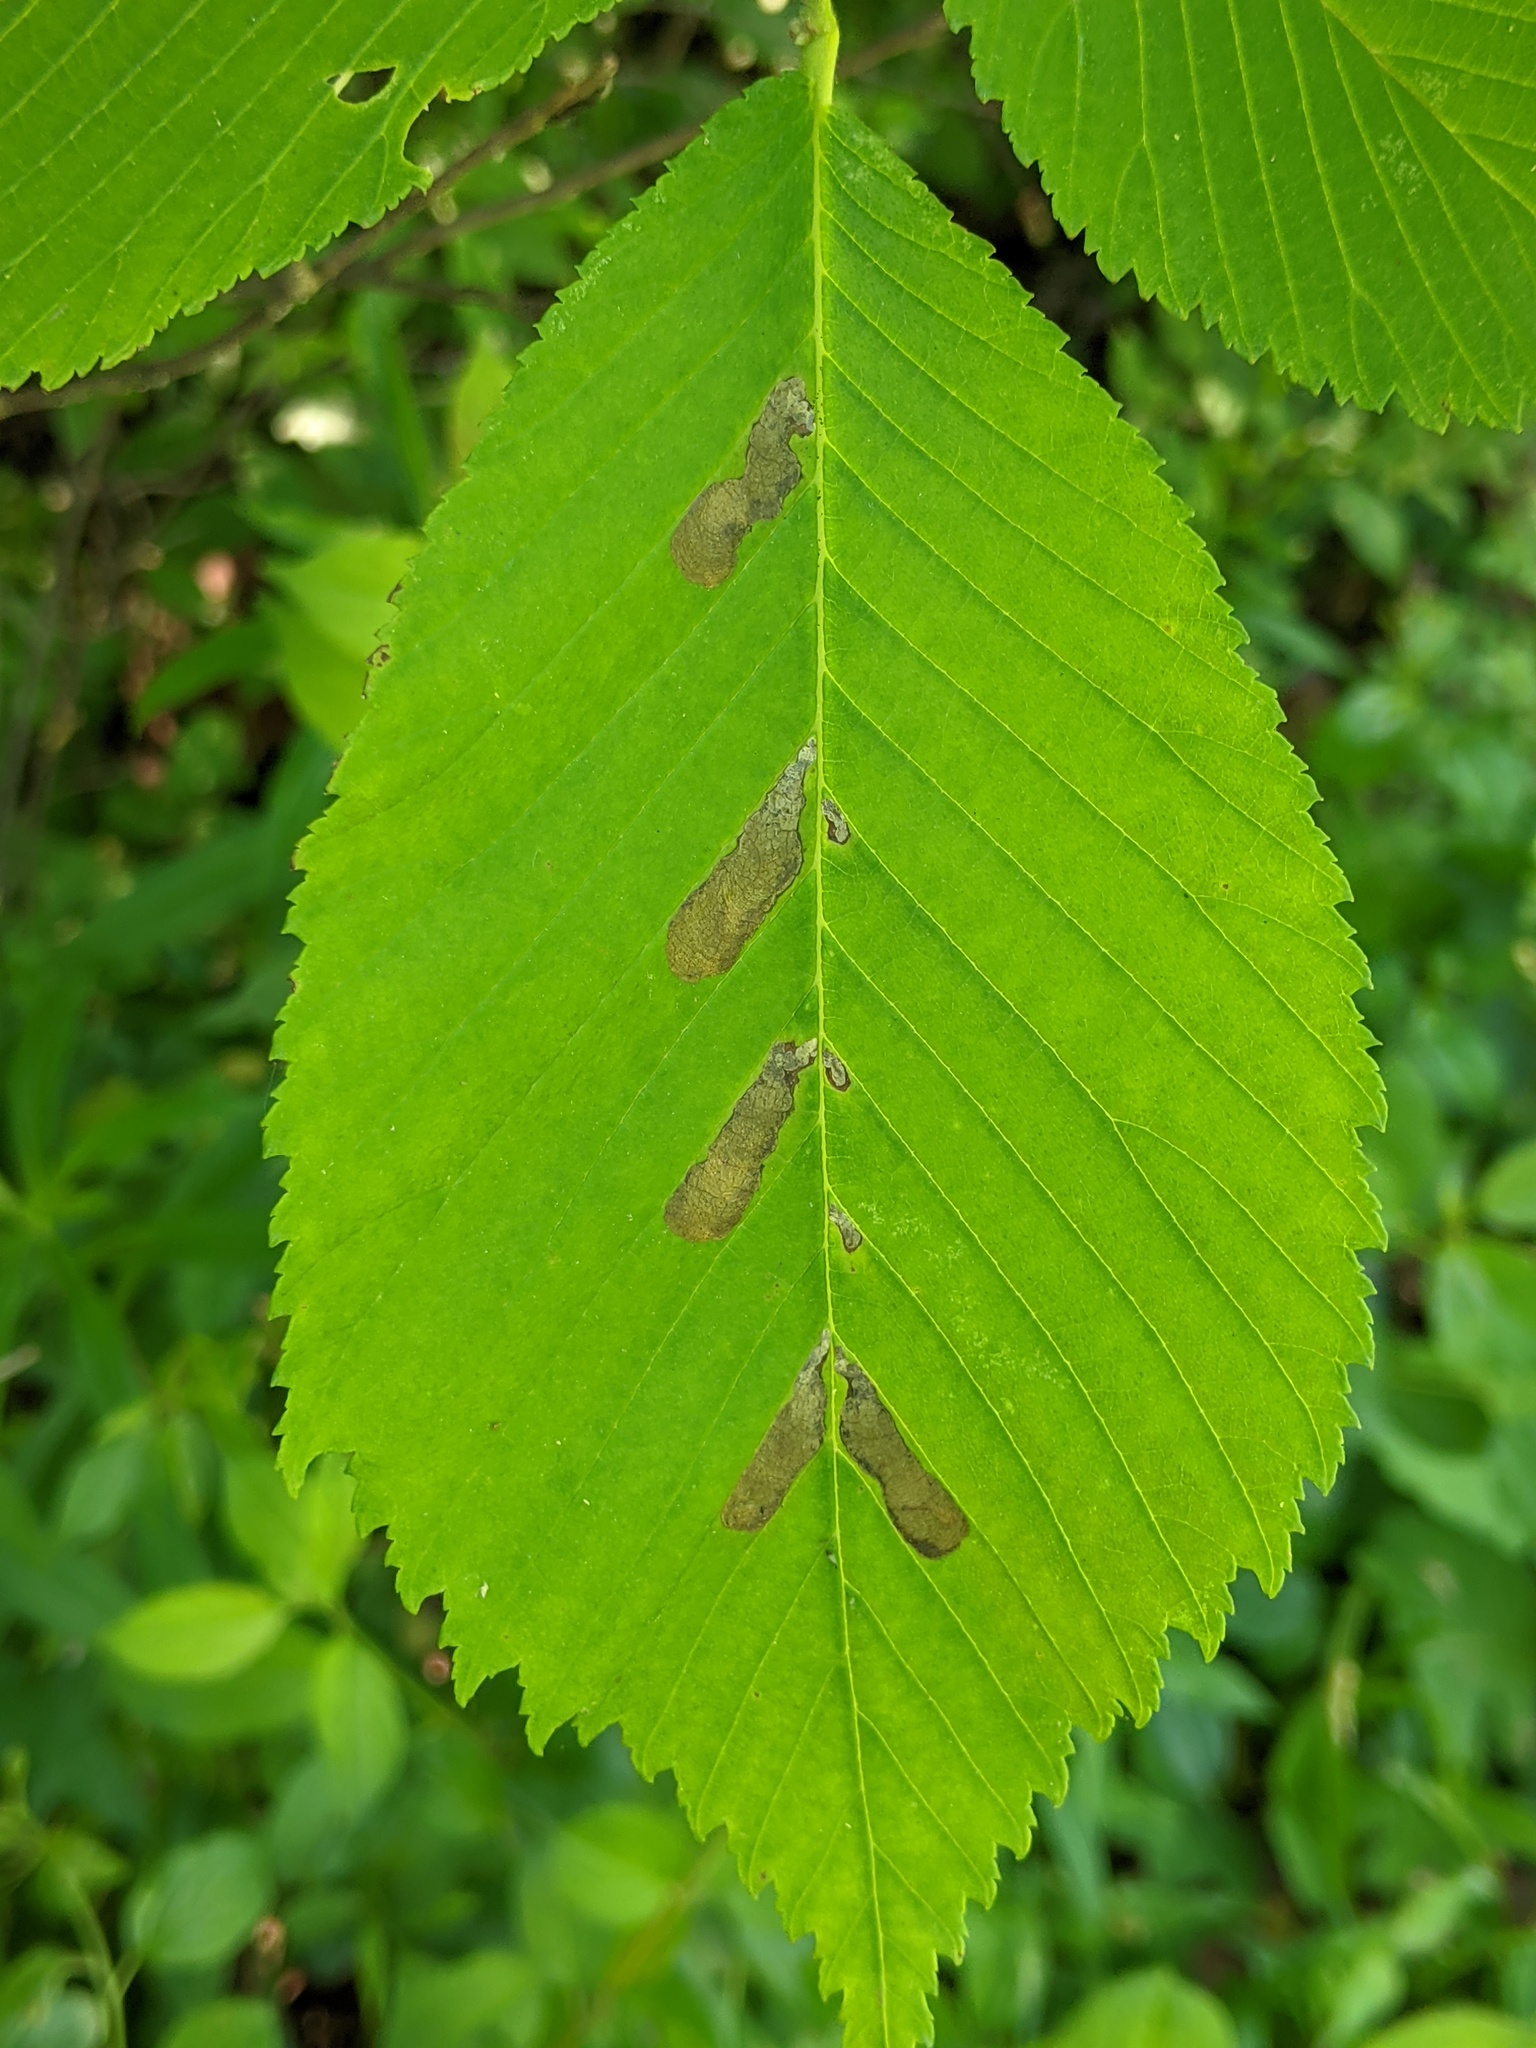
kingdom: Animalia
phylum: Arthropoda
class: Insecta
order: Hymenoptera
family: Tenthredinidae
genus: Fenusa
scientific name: Fenusa ulmi
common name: Elm leafminer
